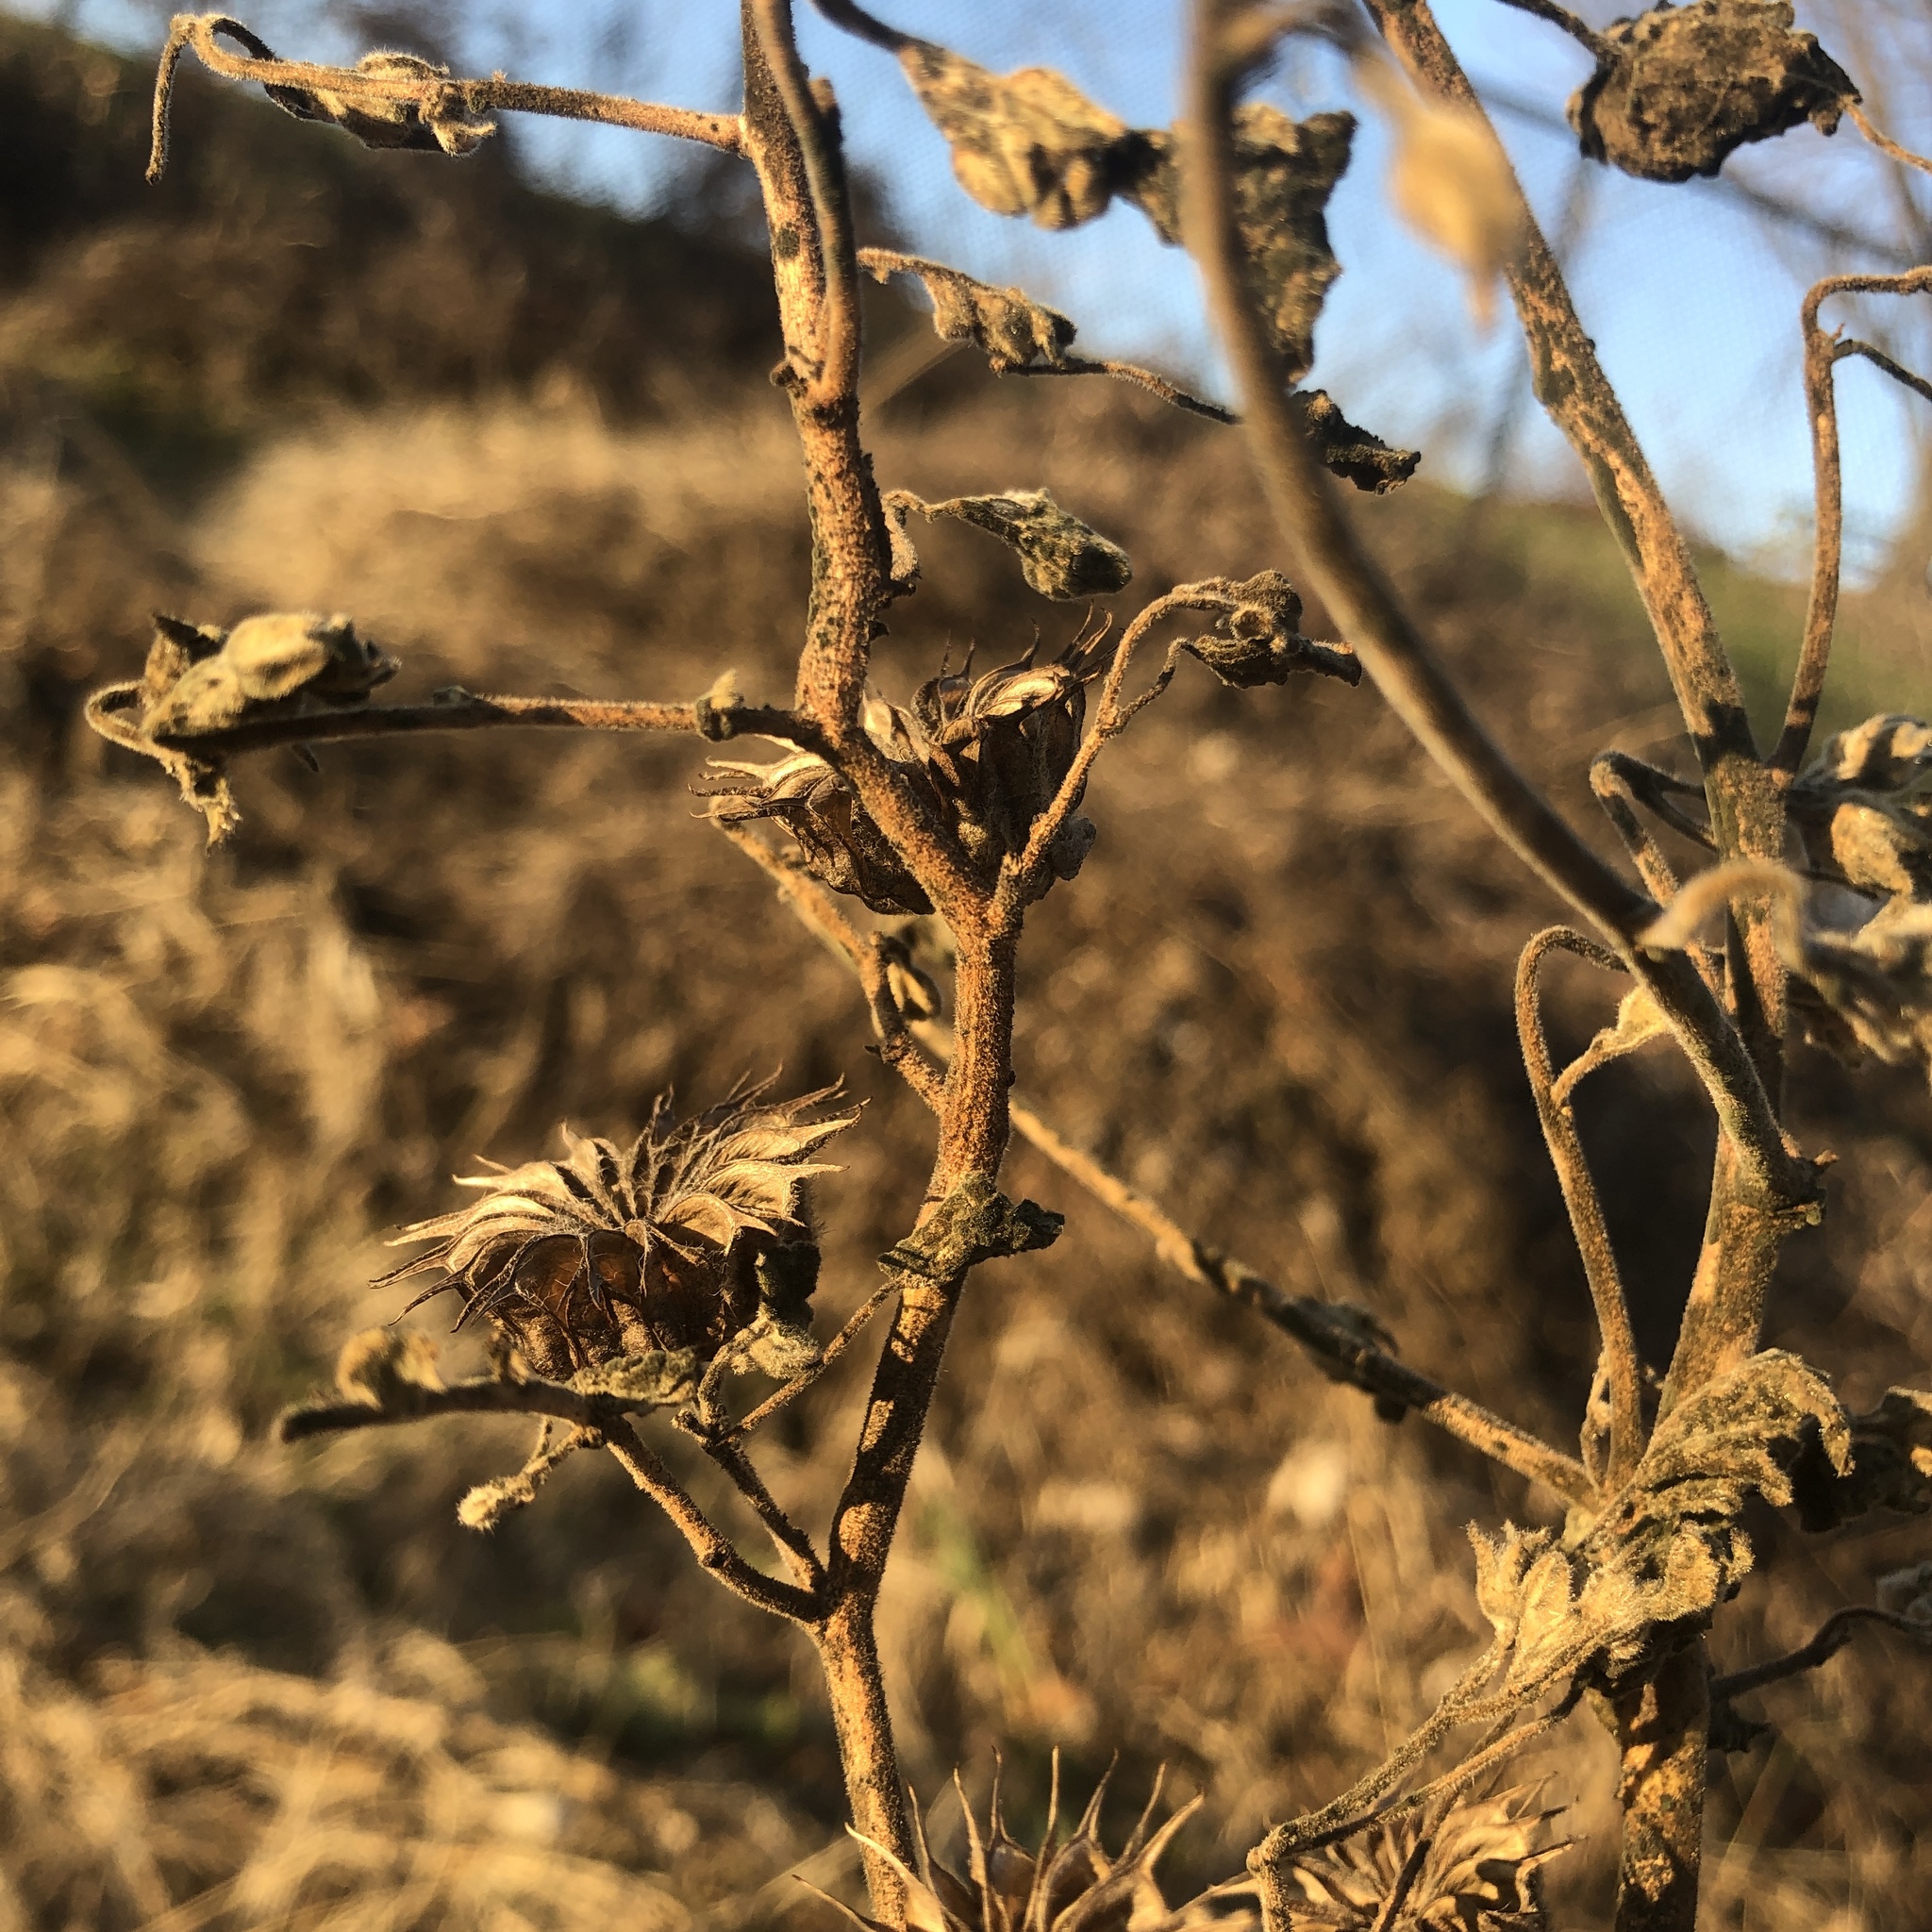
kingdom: Plantae
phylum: Tracheophyta
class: Magnoliopsida
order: Malvales
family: Malvaceae
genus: Abutilon
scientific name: Abutilon theophrasti
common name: Velvetleaf
